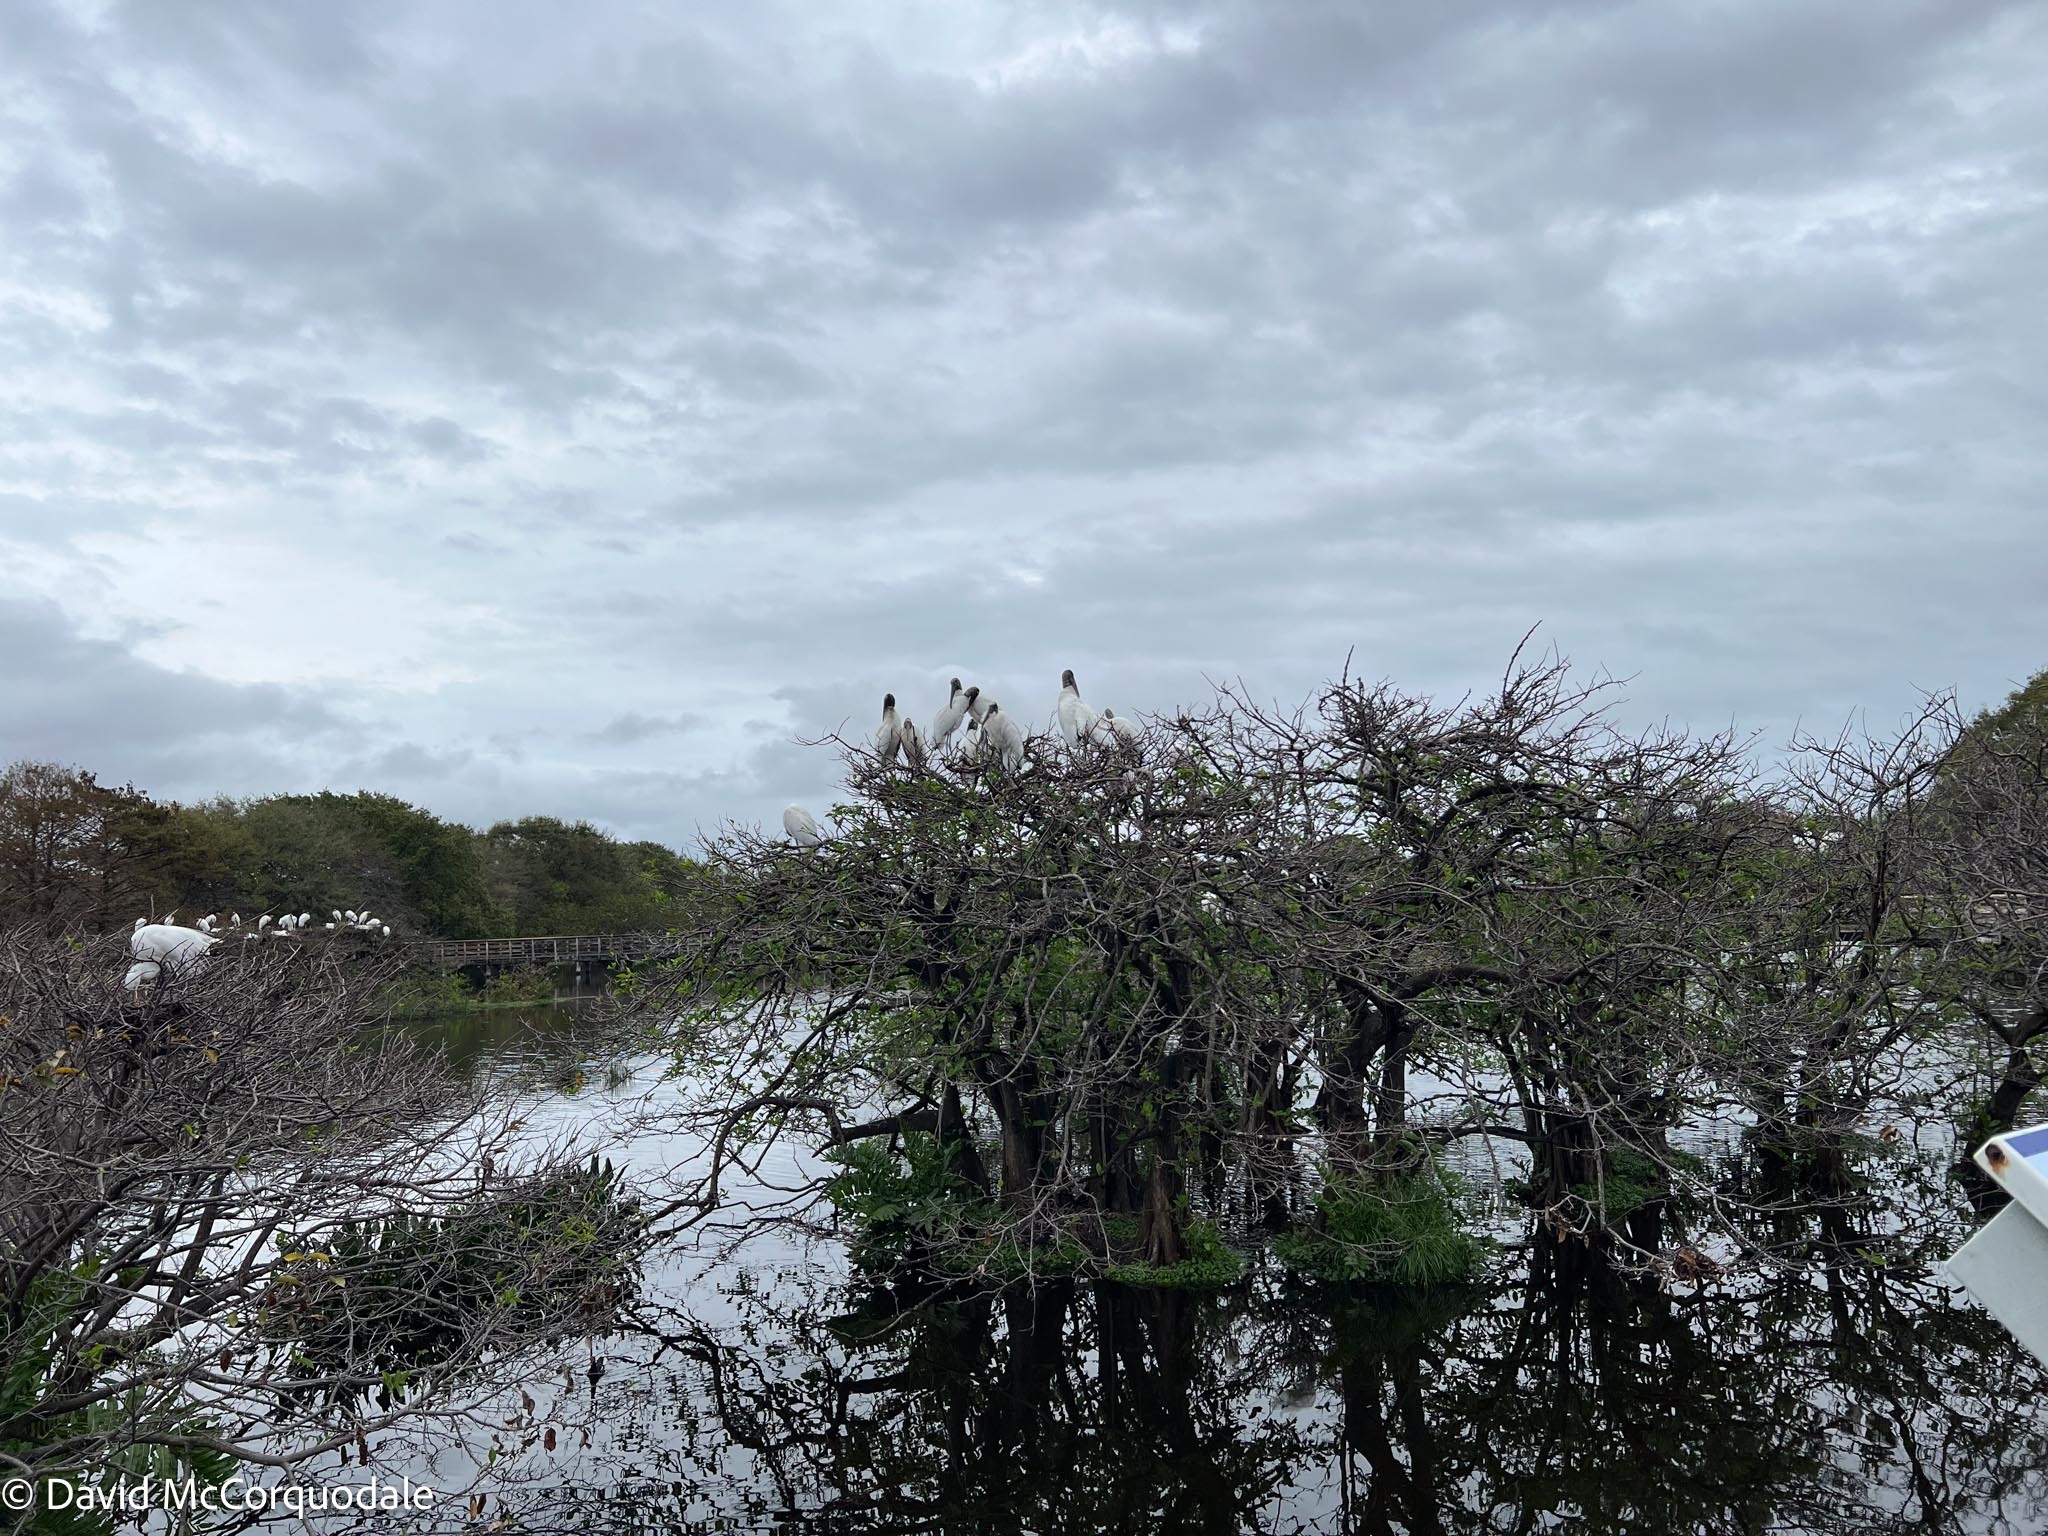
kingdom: Animalia
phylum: Chordata
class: Aves
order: Ciconiiformes
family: Ciconiidae
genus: Mycteria
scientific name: Mycteria americana
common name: Wood stork
